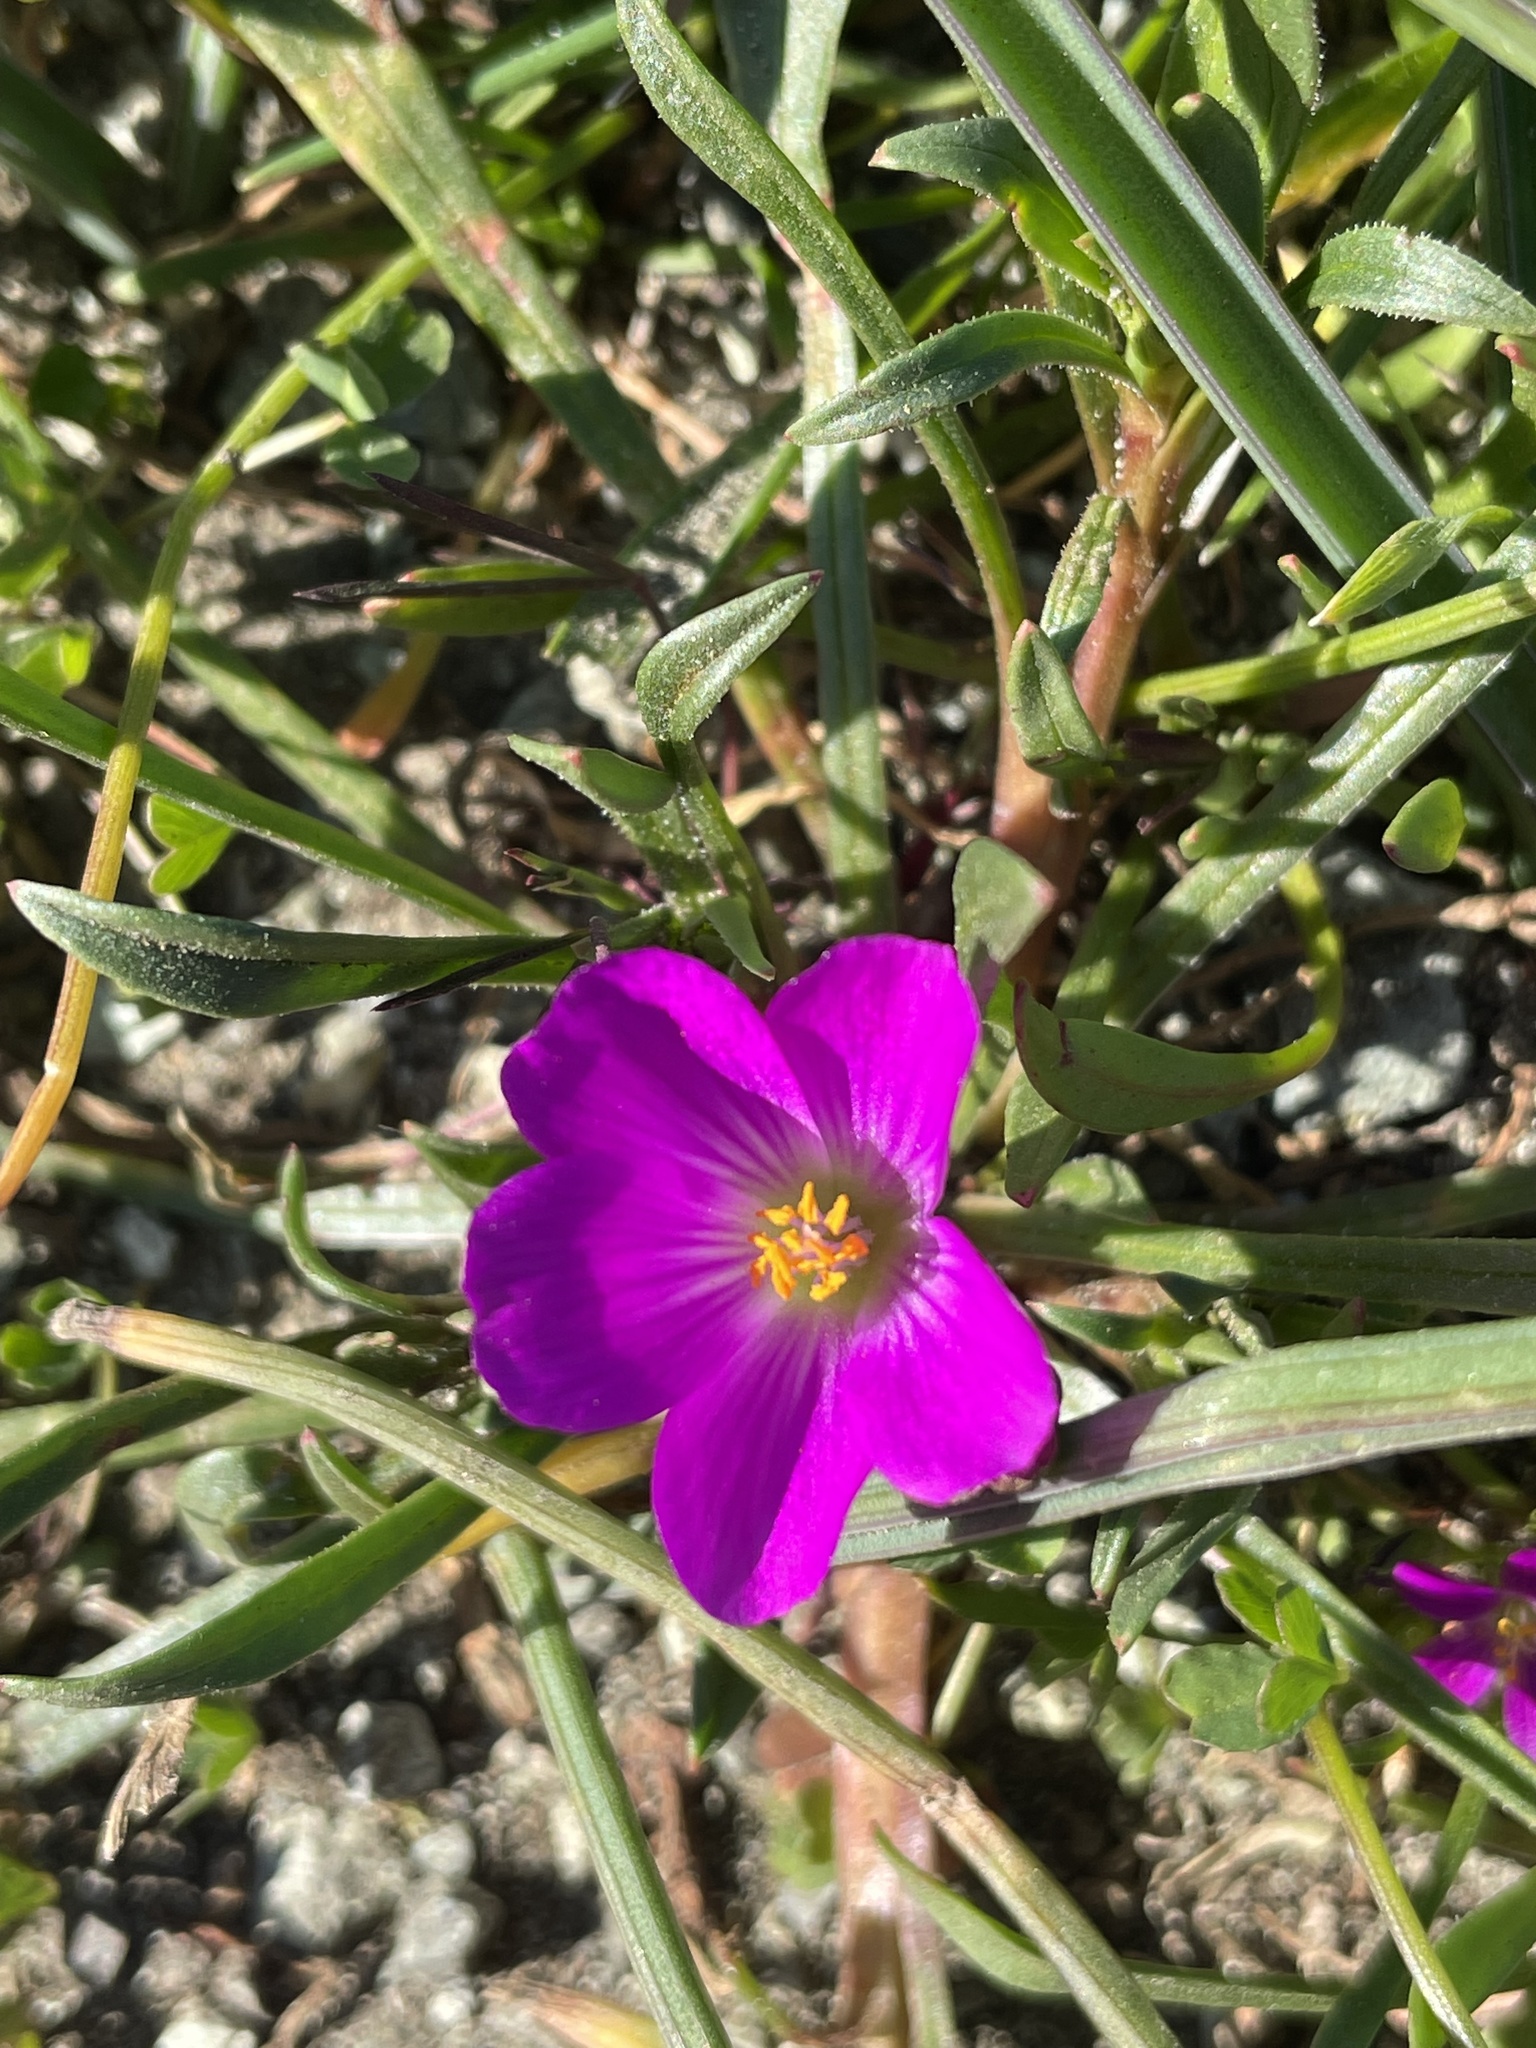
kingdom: Plantae
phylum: Tracheophyta
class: Magnoliopsida
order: Caryophyllales
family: Montiaceae
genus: Calandrinia
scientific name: Calandrinia menziesii
